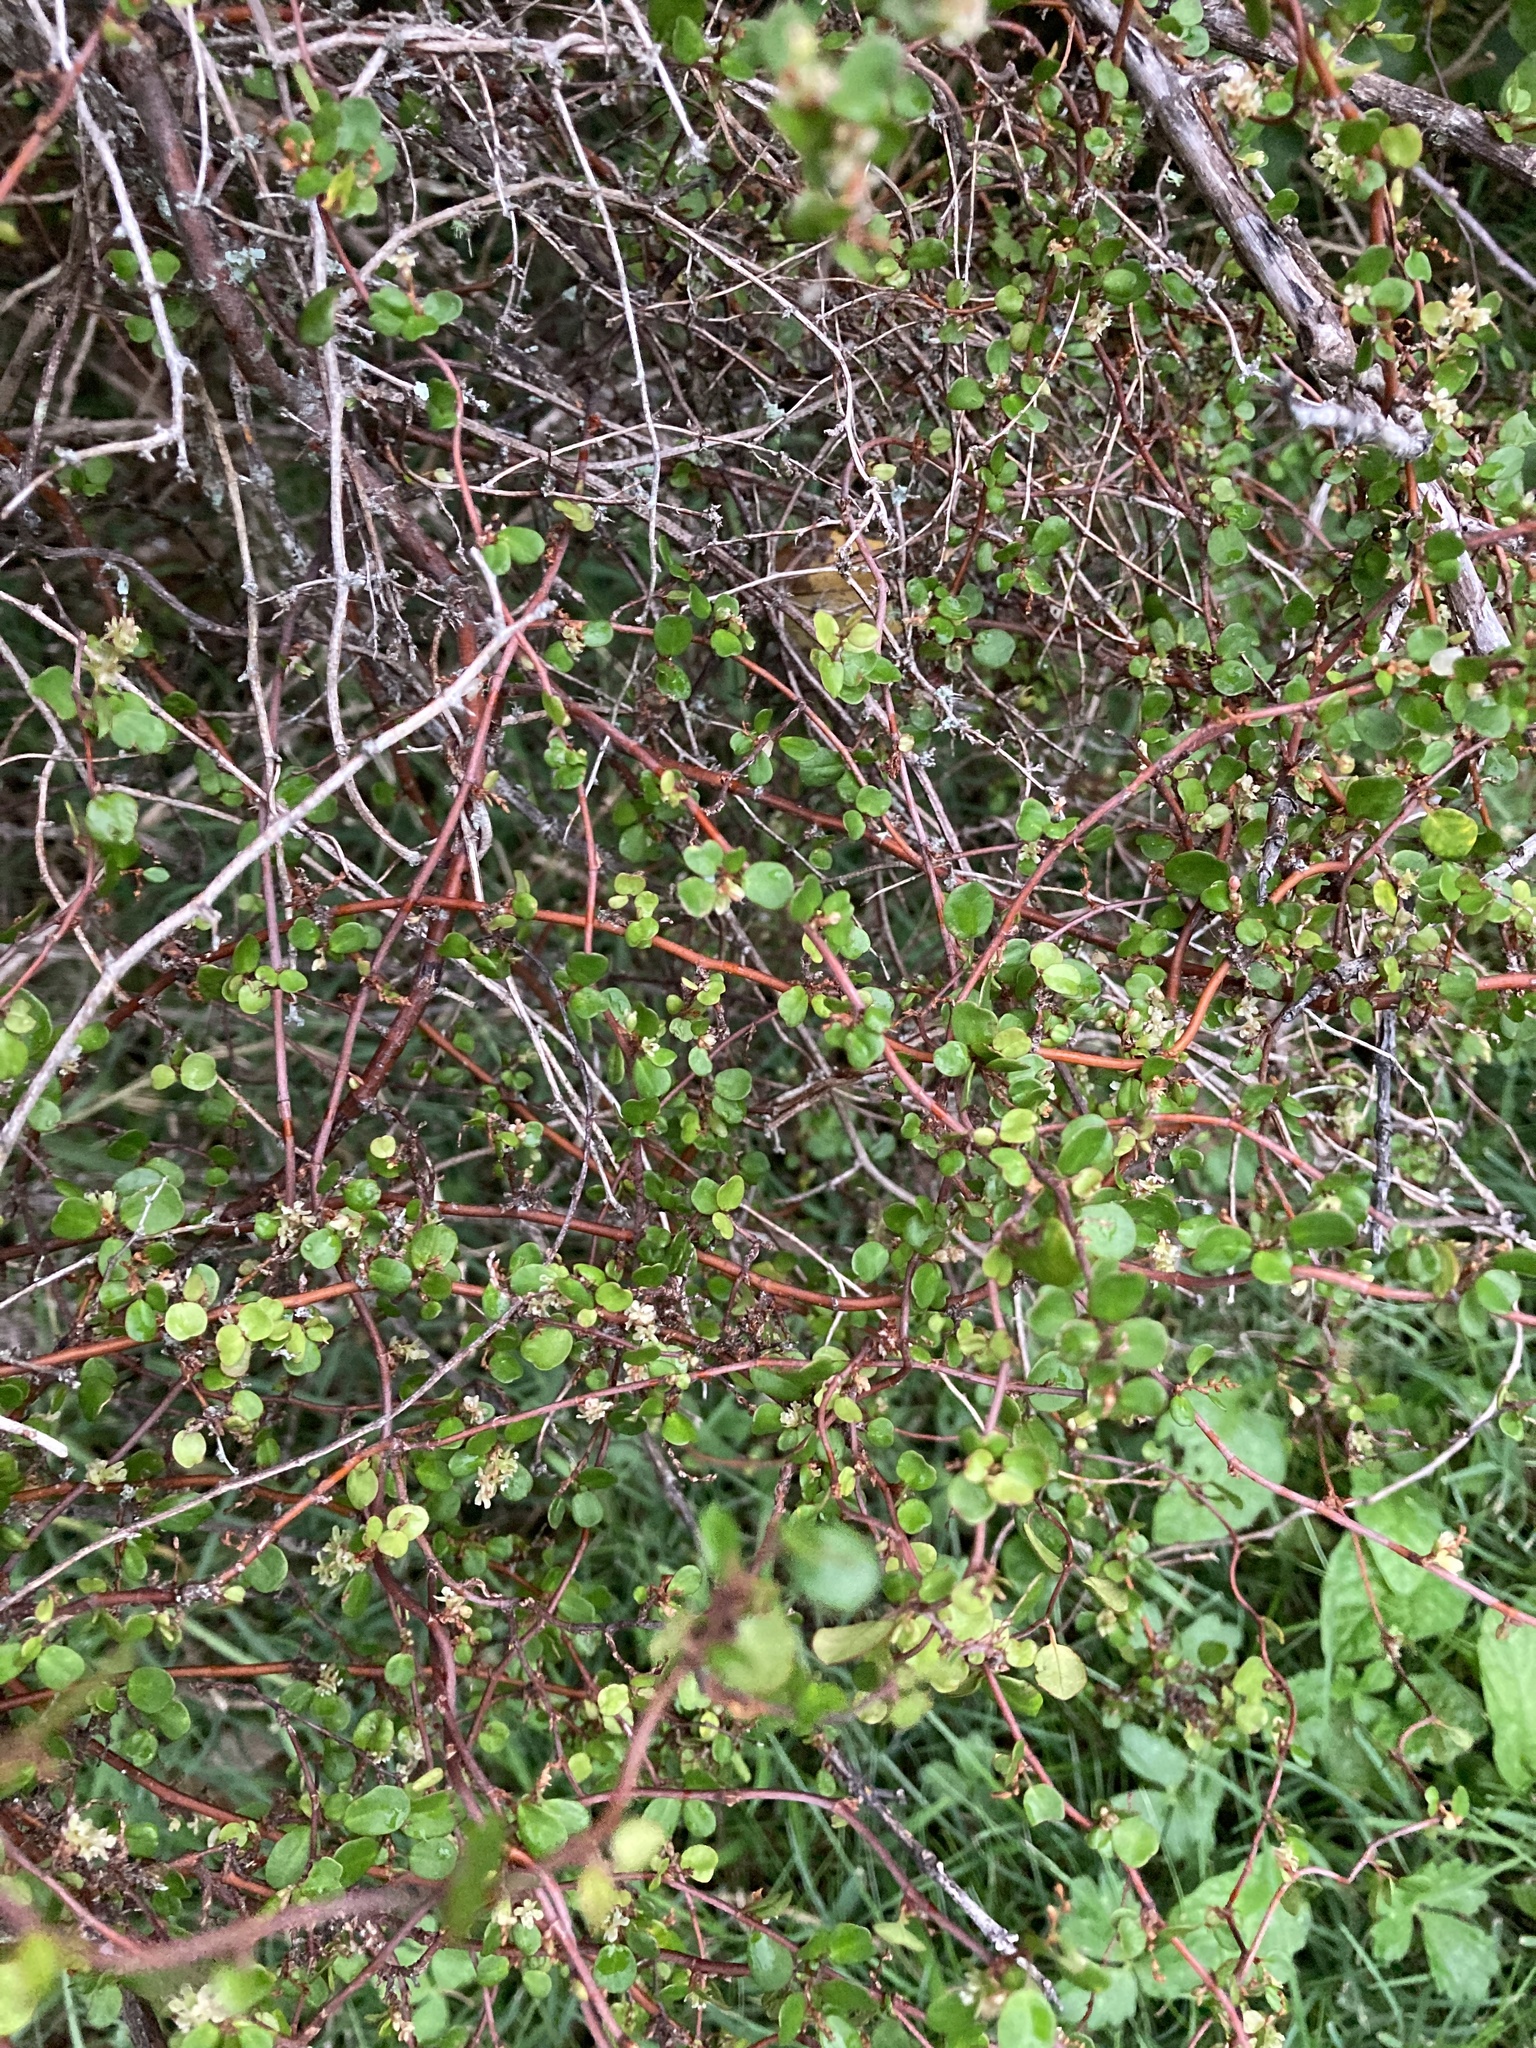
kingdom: Plantae
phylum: Tracheophyta
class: Magnoliopsida
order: Caryophyllales
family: Polygonaceae
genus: Muehlenbeckia
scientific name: Muehlenbeckia complexa
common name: Wireplant
